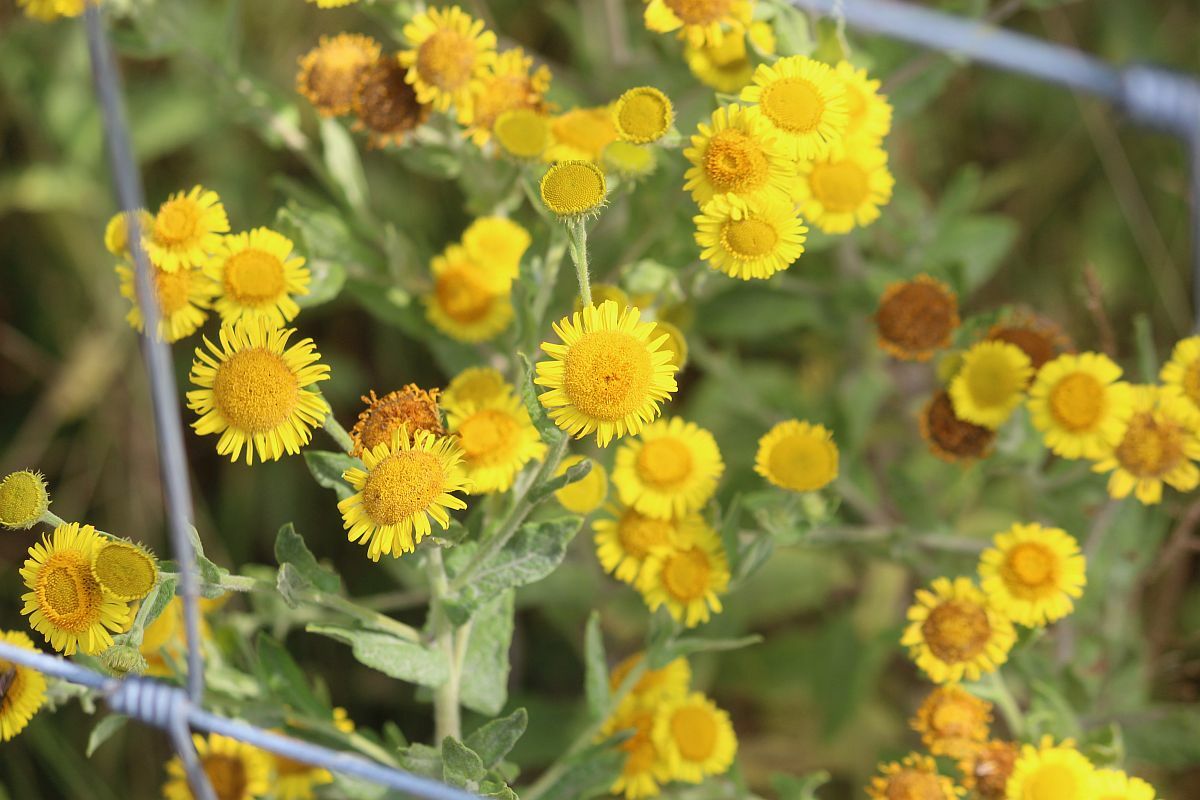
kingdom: Plantae
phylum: Tracheophyta
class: Magnoliopsida
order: Asterales
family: Asteraceae
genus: Pulicaria
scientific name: Pulicaria dysenterica
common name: Common fleabane
